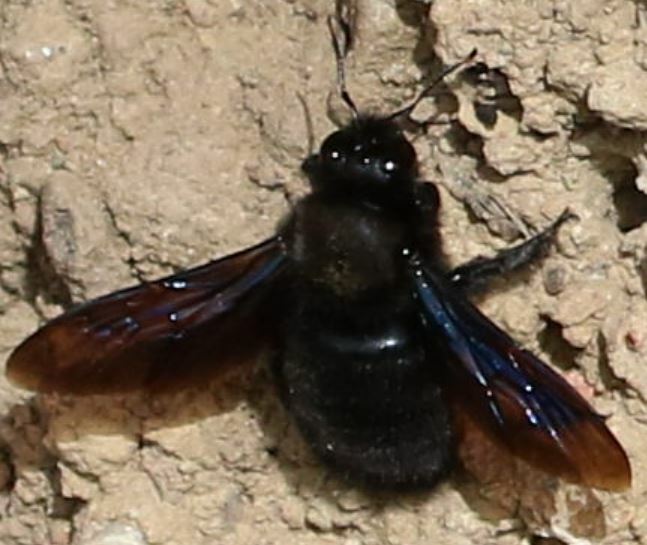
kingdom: Animalia
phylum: Arthropoda
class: Insecta
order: Hymenoptera
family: Apidae
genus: Xylocopa
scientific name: Xylocopa violacea
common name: Violet carpenter bee
